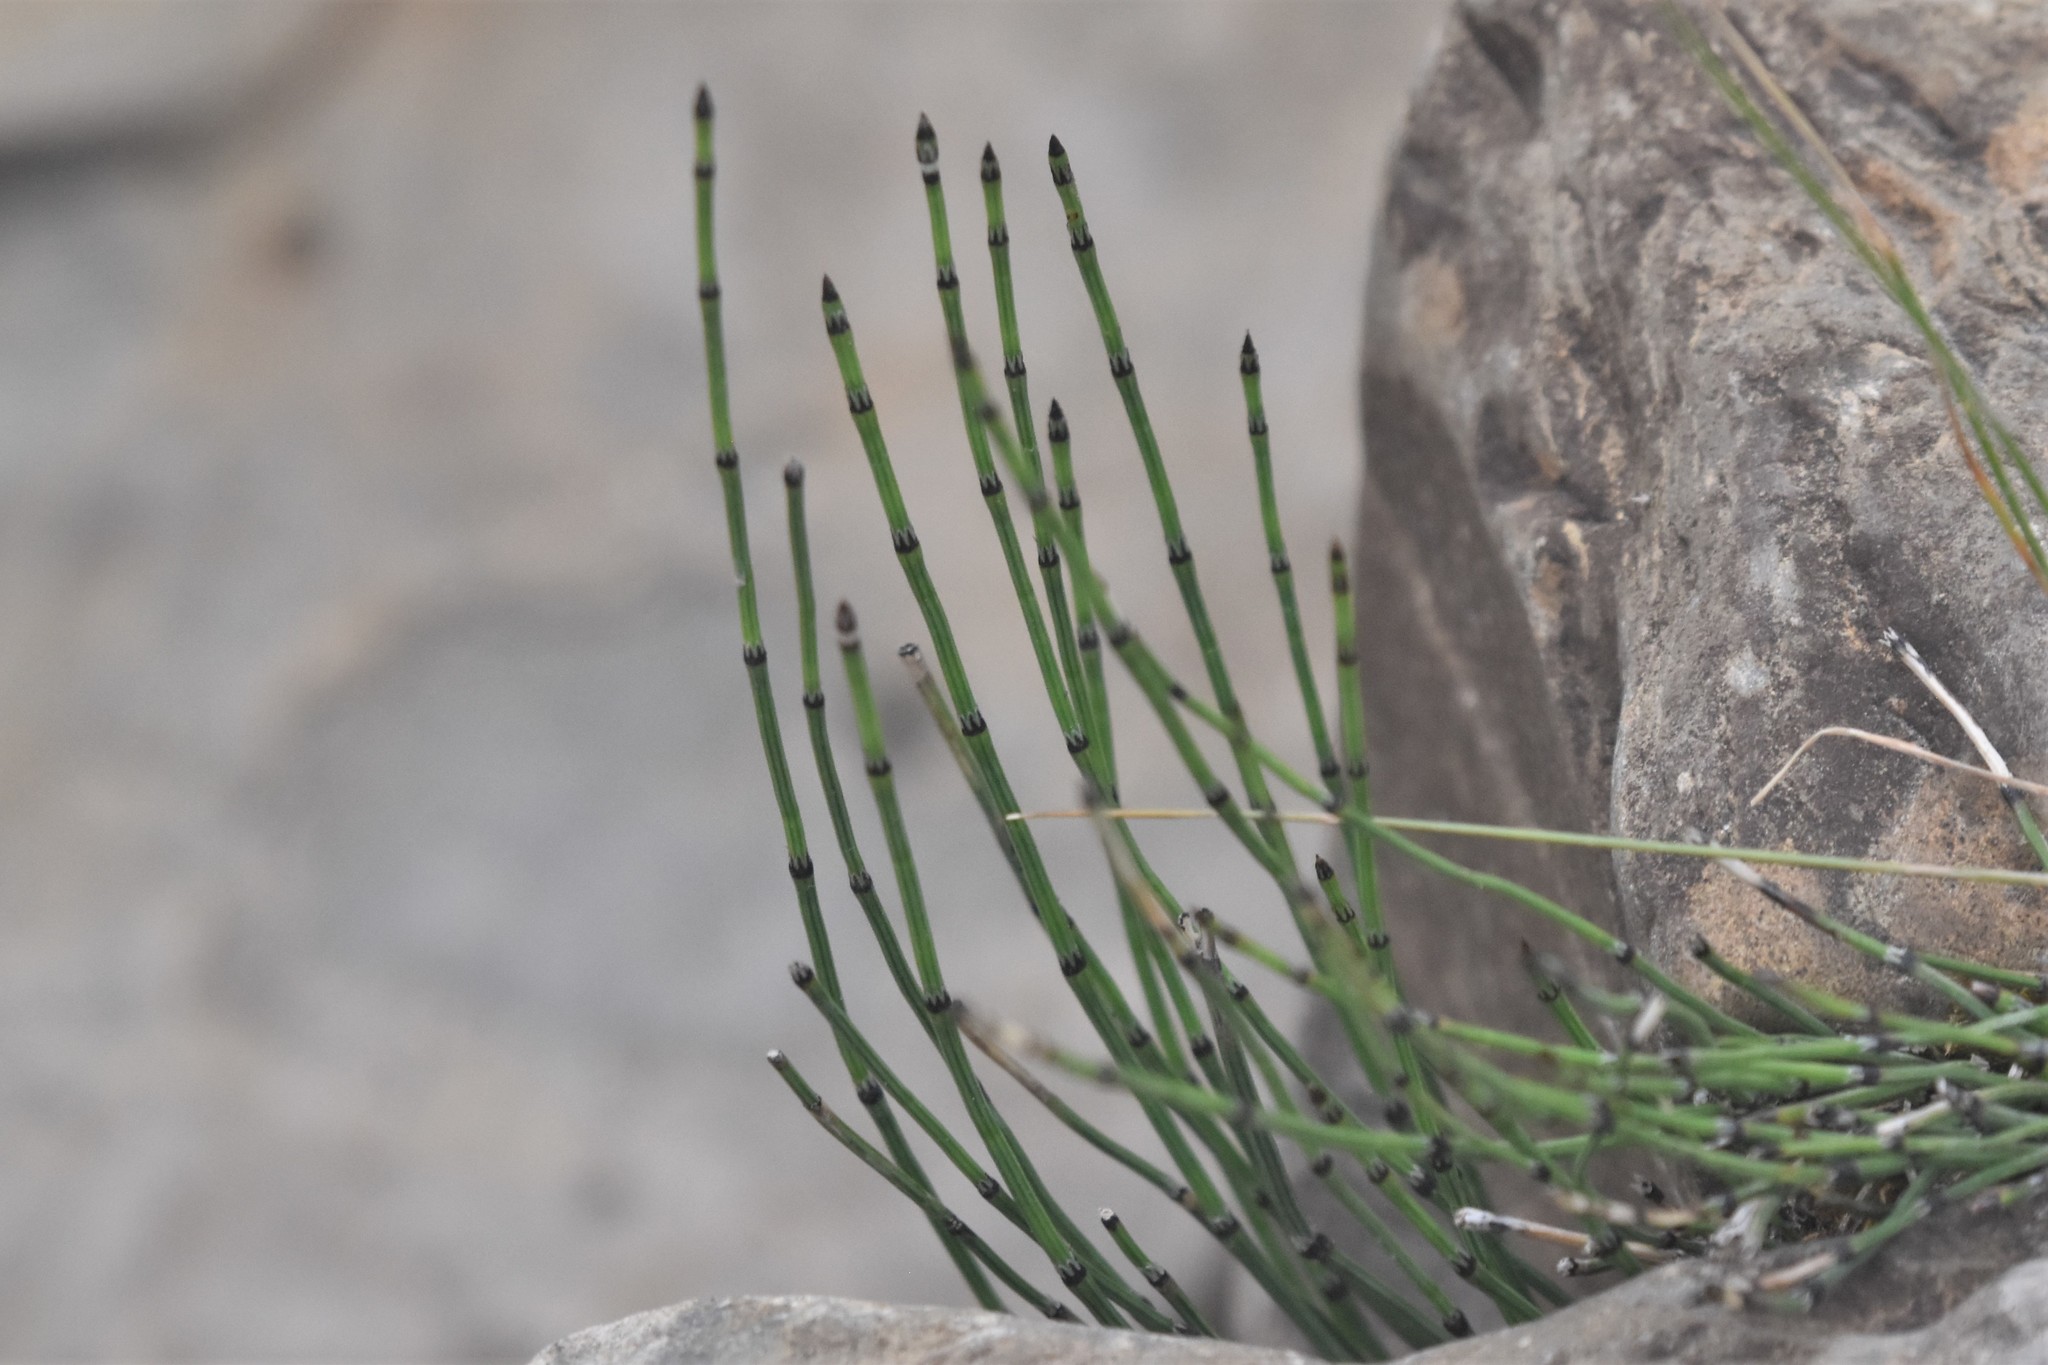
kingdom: Plantae
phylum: Tracheophyta
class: Polypodiopsida
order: Equisetales
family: Equisetaceae
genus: Equisetum
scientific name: Equisetum variegatum
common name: Variegated horsetail
